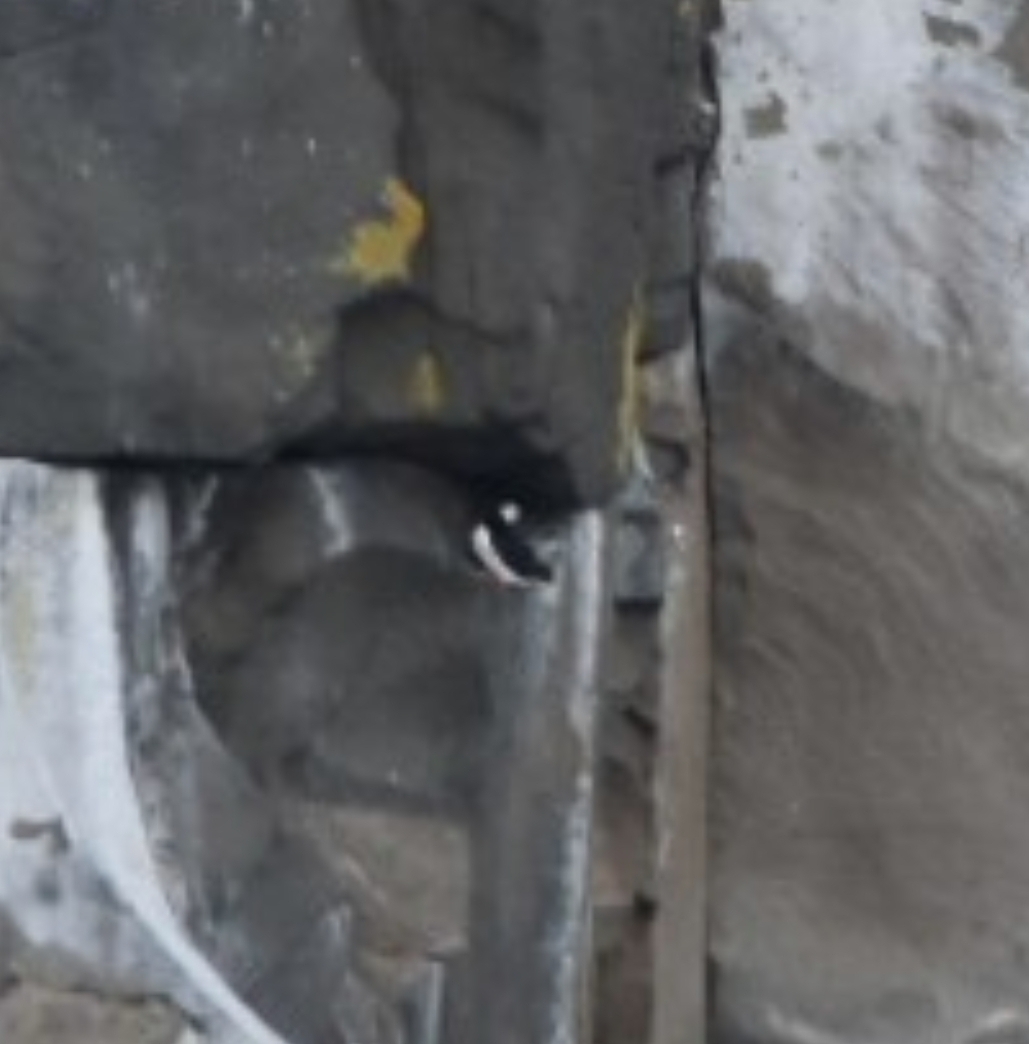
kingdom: Animalia
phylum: Chordata
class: Aves
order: Charadriiformes
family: Alcidae
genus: Fratercula
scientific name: Fratercula corniculata
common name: Horned puffin
